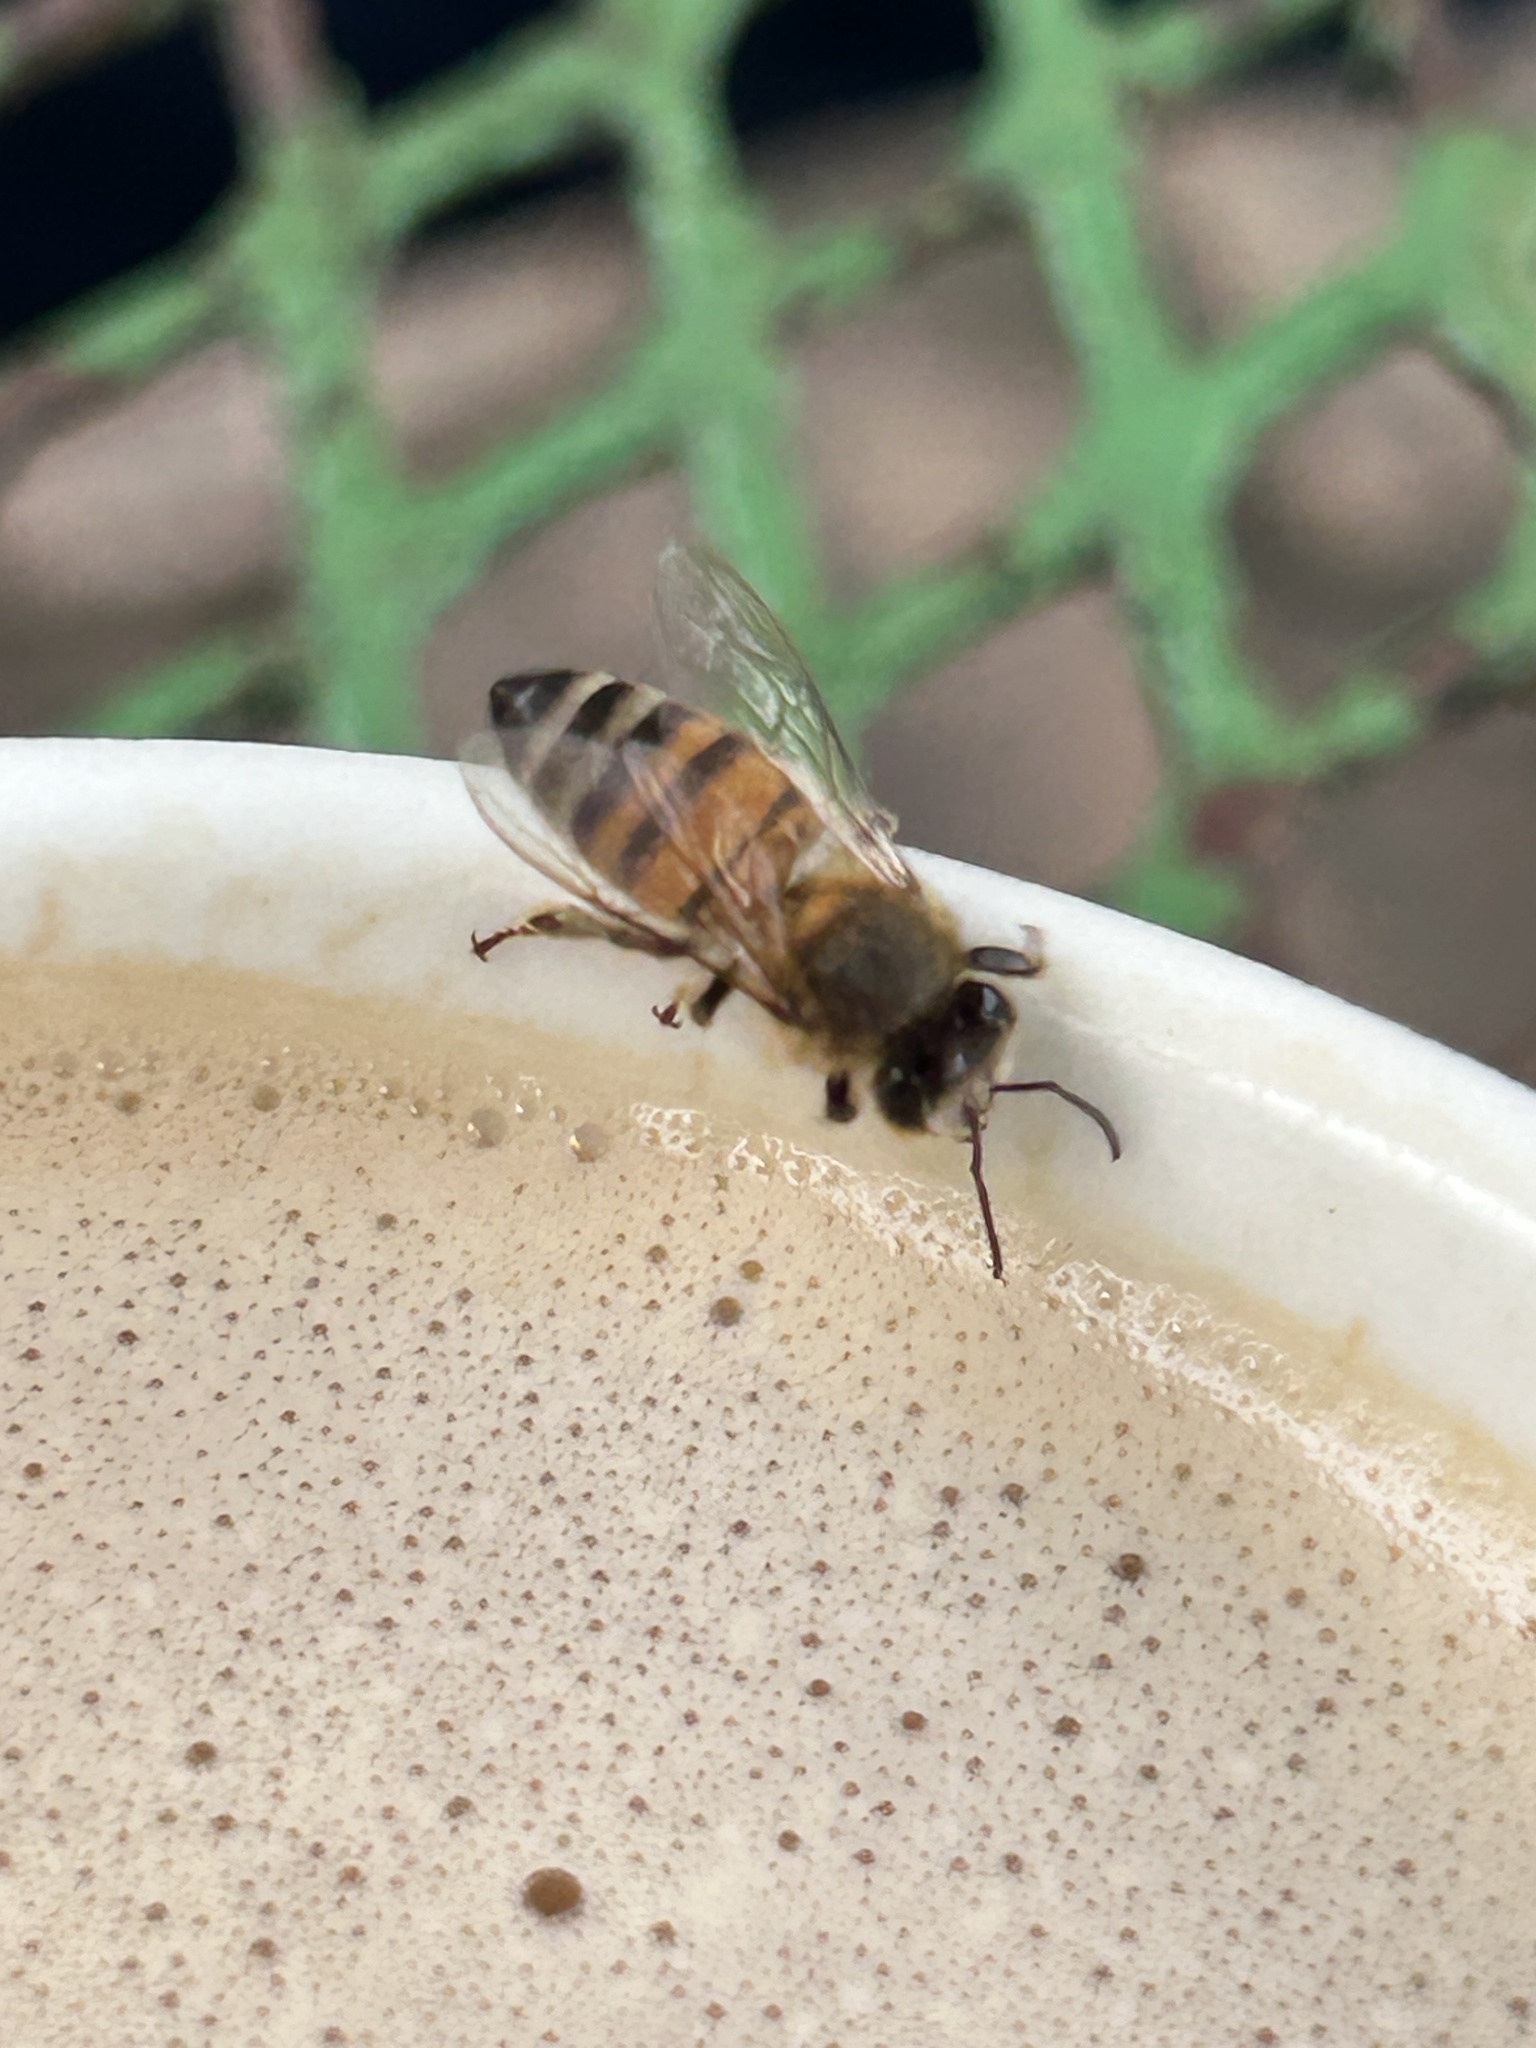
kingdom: Animalia
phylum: Arthropoda
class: Insecta
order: Hymenoptera
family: Apidae
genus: Apis
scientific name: Apis mellifera
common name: Honey bee
